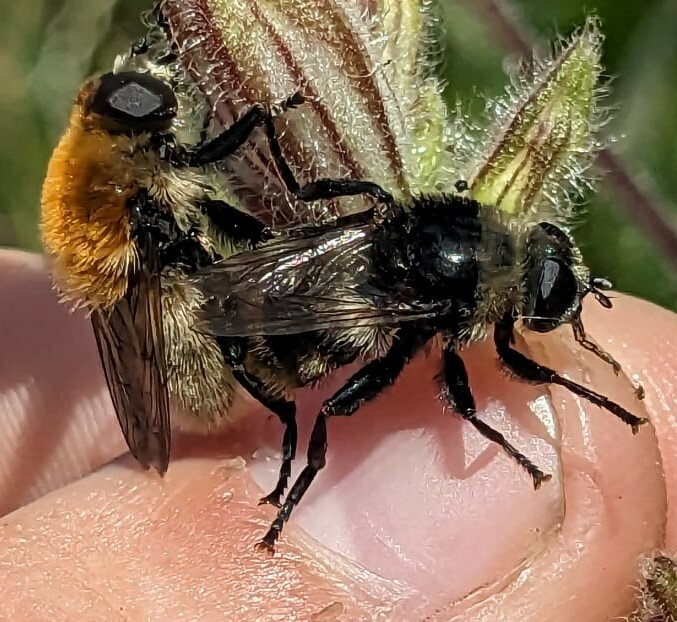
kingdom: Animalia
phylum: Arthropoda
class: Insecta
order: Diptera
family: Syrphidae
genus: Merodon
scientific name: Merodon equestris
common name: Greater bulb-fly
